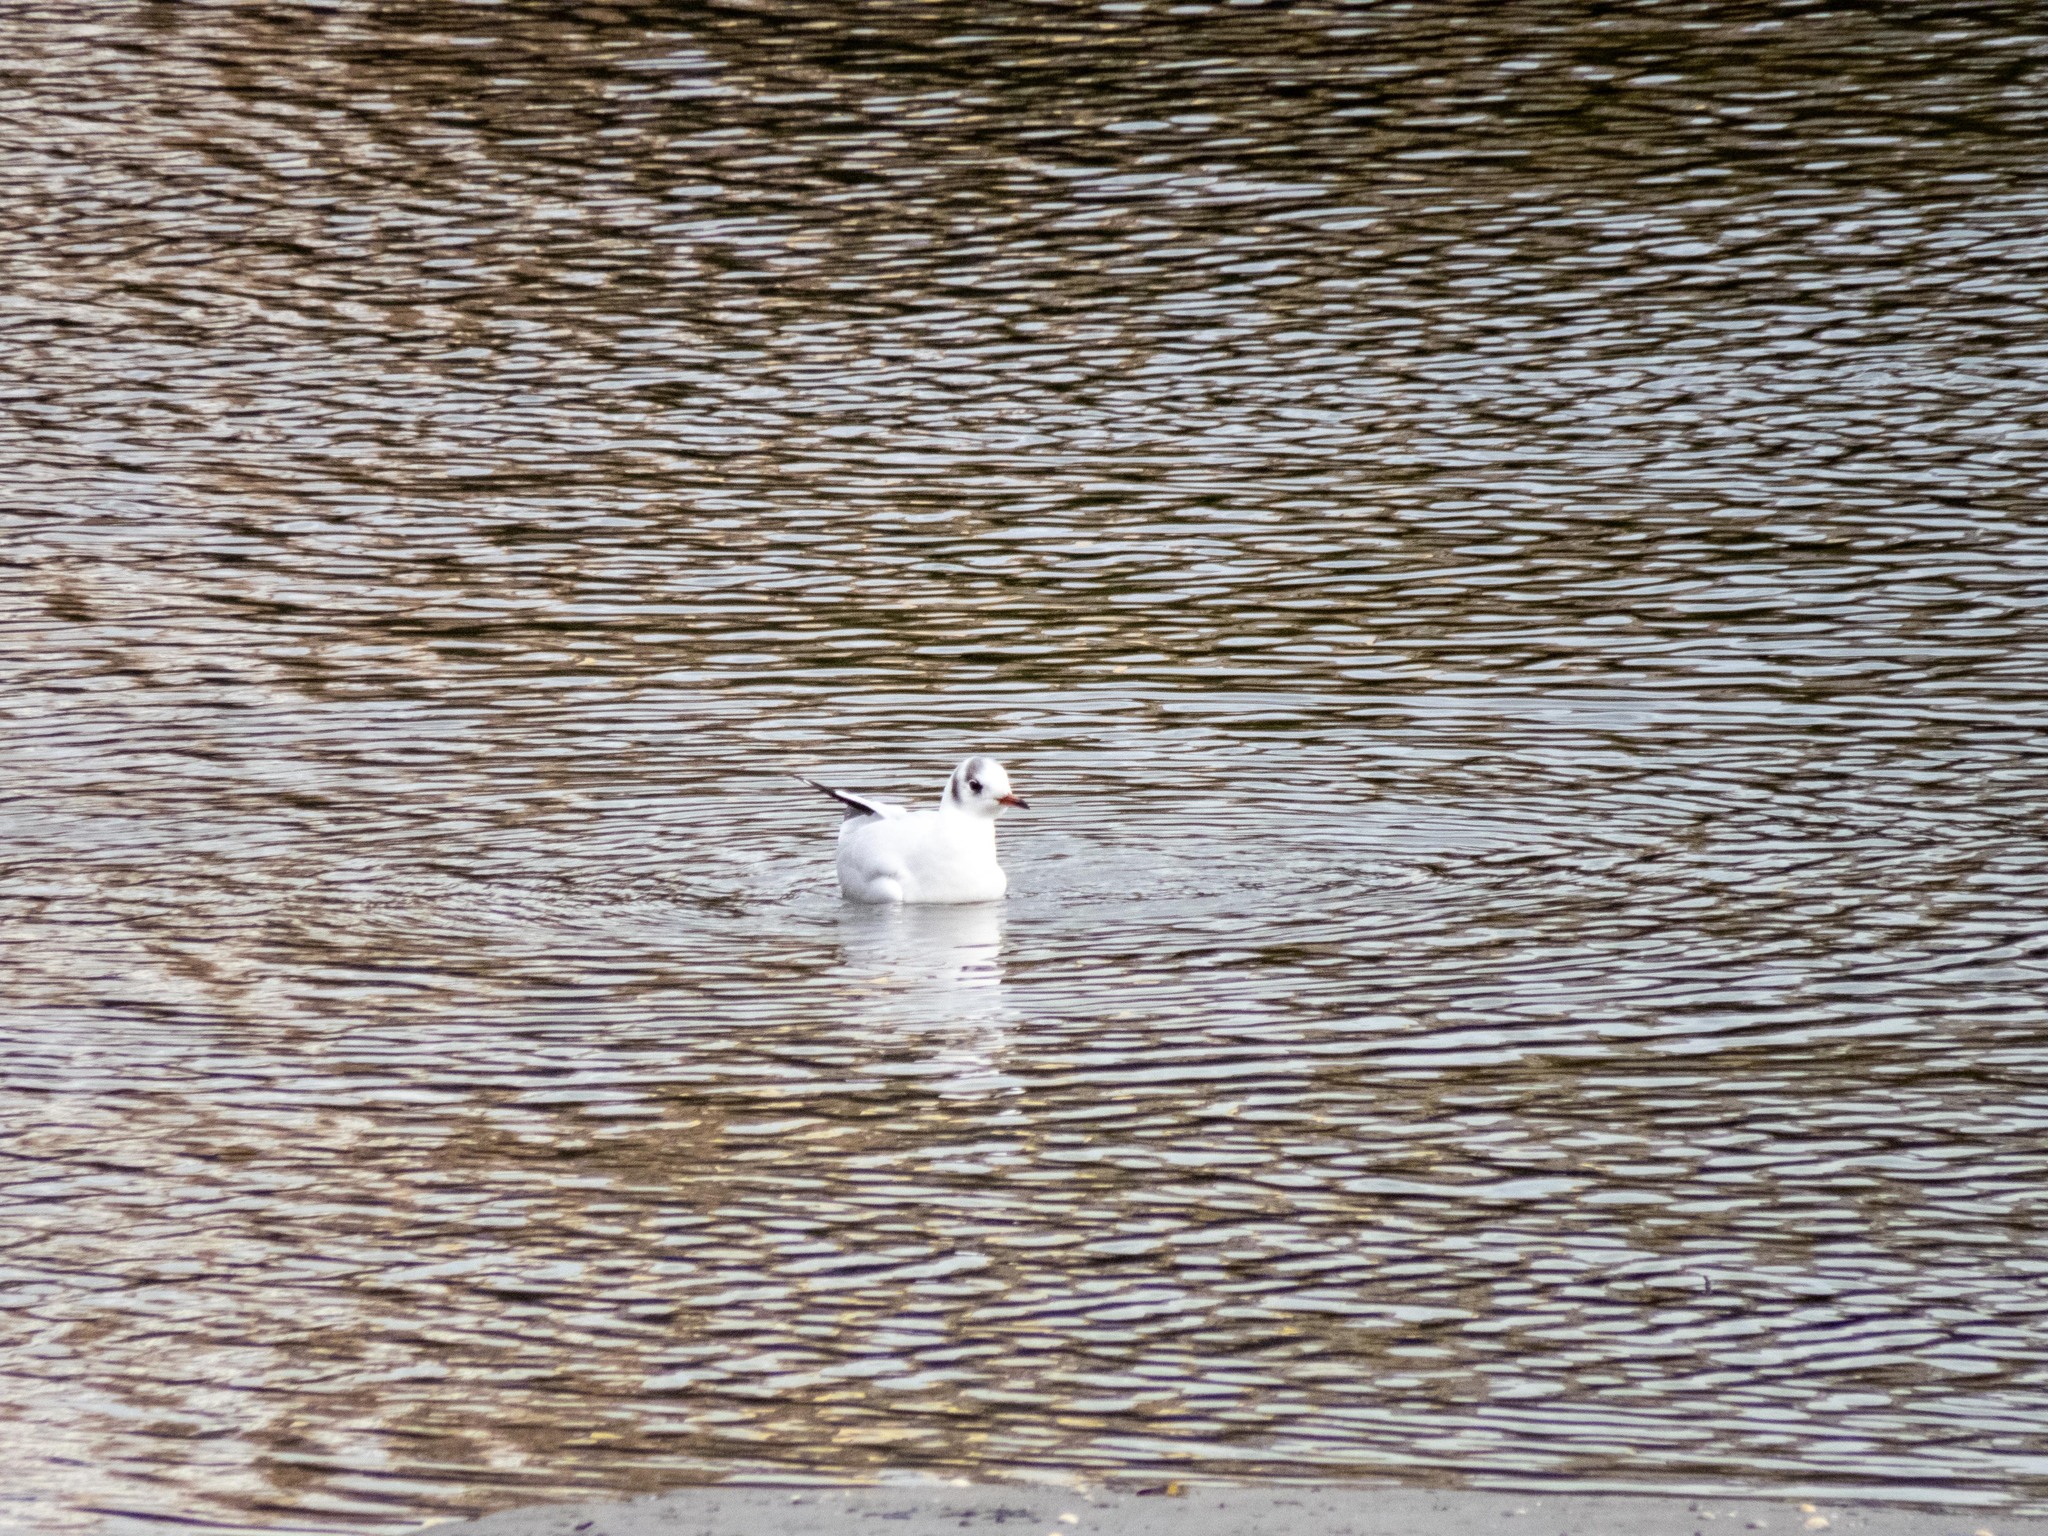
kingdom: Animalia
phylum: Chordata
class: Aves
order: Charadriiformes
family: Laridae
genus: Chroicocephalus
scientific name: Chroicocephalus ridibundus
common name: Black-headed gull
